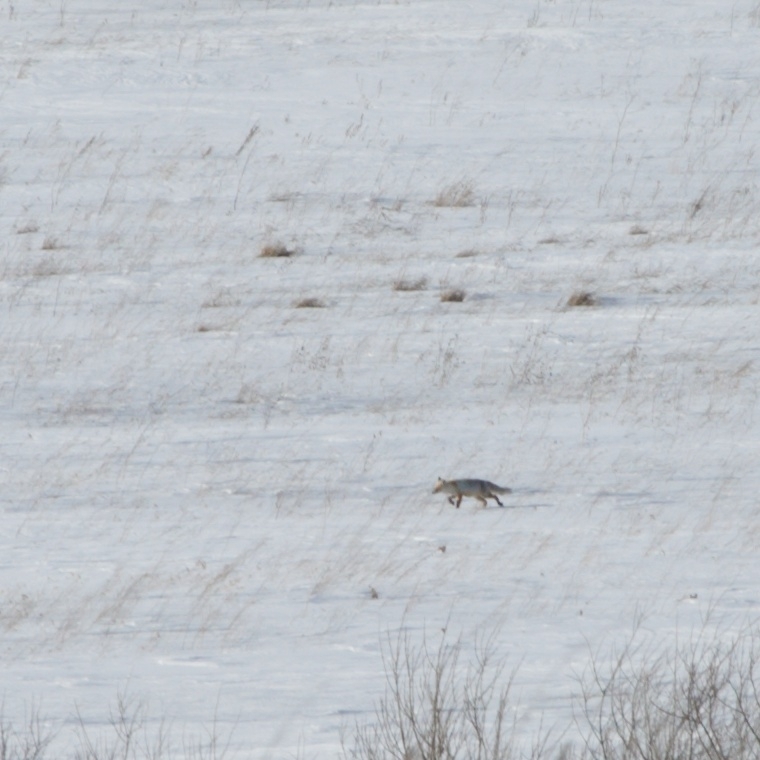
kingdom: Animalia
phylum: Chordata
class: Mammalia
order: Carnivora
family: Canidae
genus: Vulpes
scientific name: Vulpes vulpes
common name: Red fox
